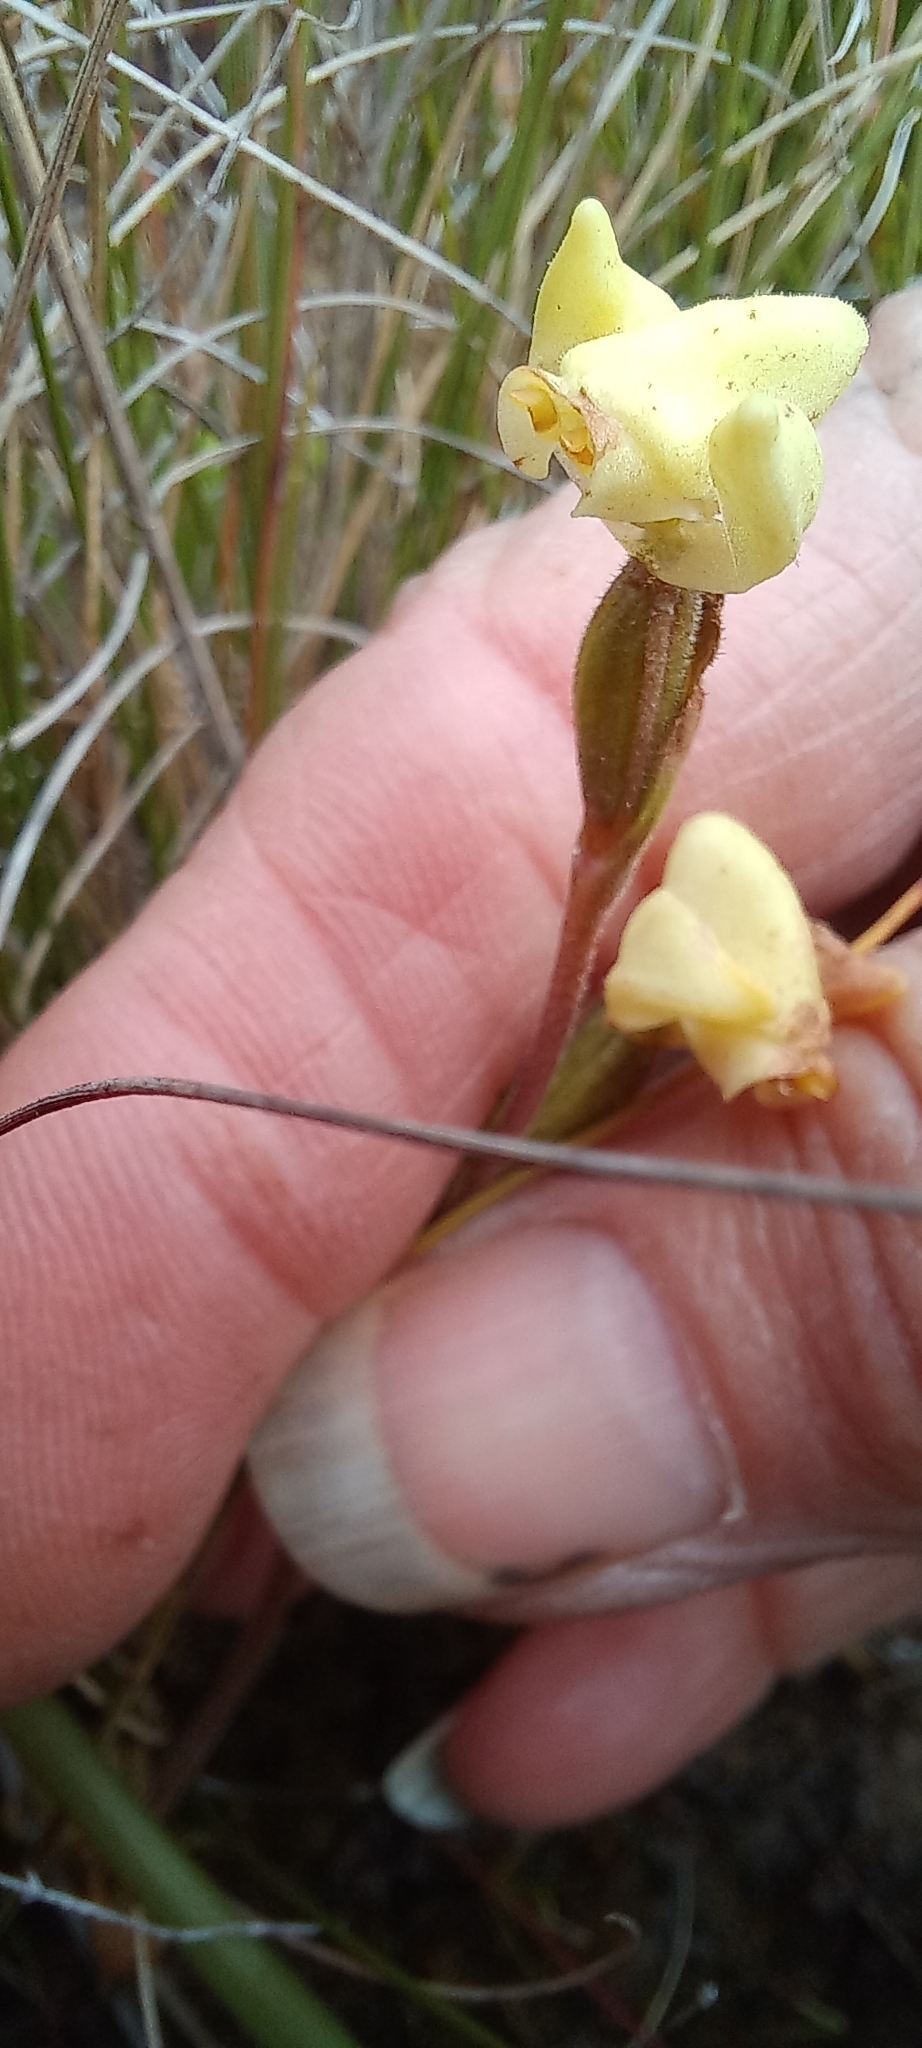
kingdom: Plantae
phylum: Tracheophyta
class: Liliopsida
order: Asparagales
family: Orchidaceae
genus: Disperis
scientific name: Disperis villosa
